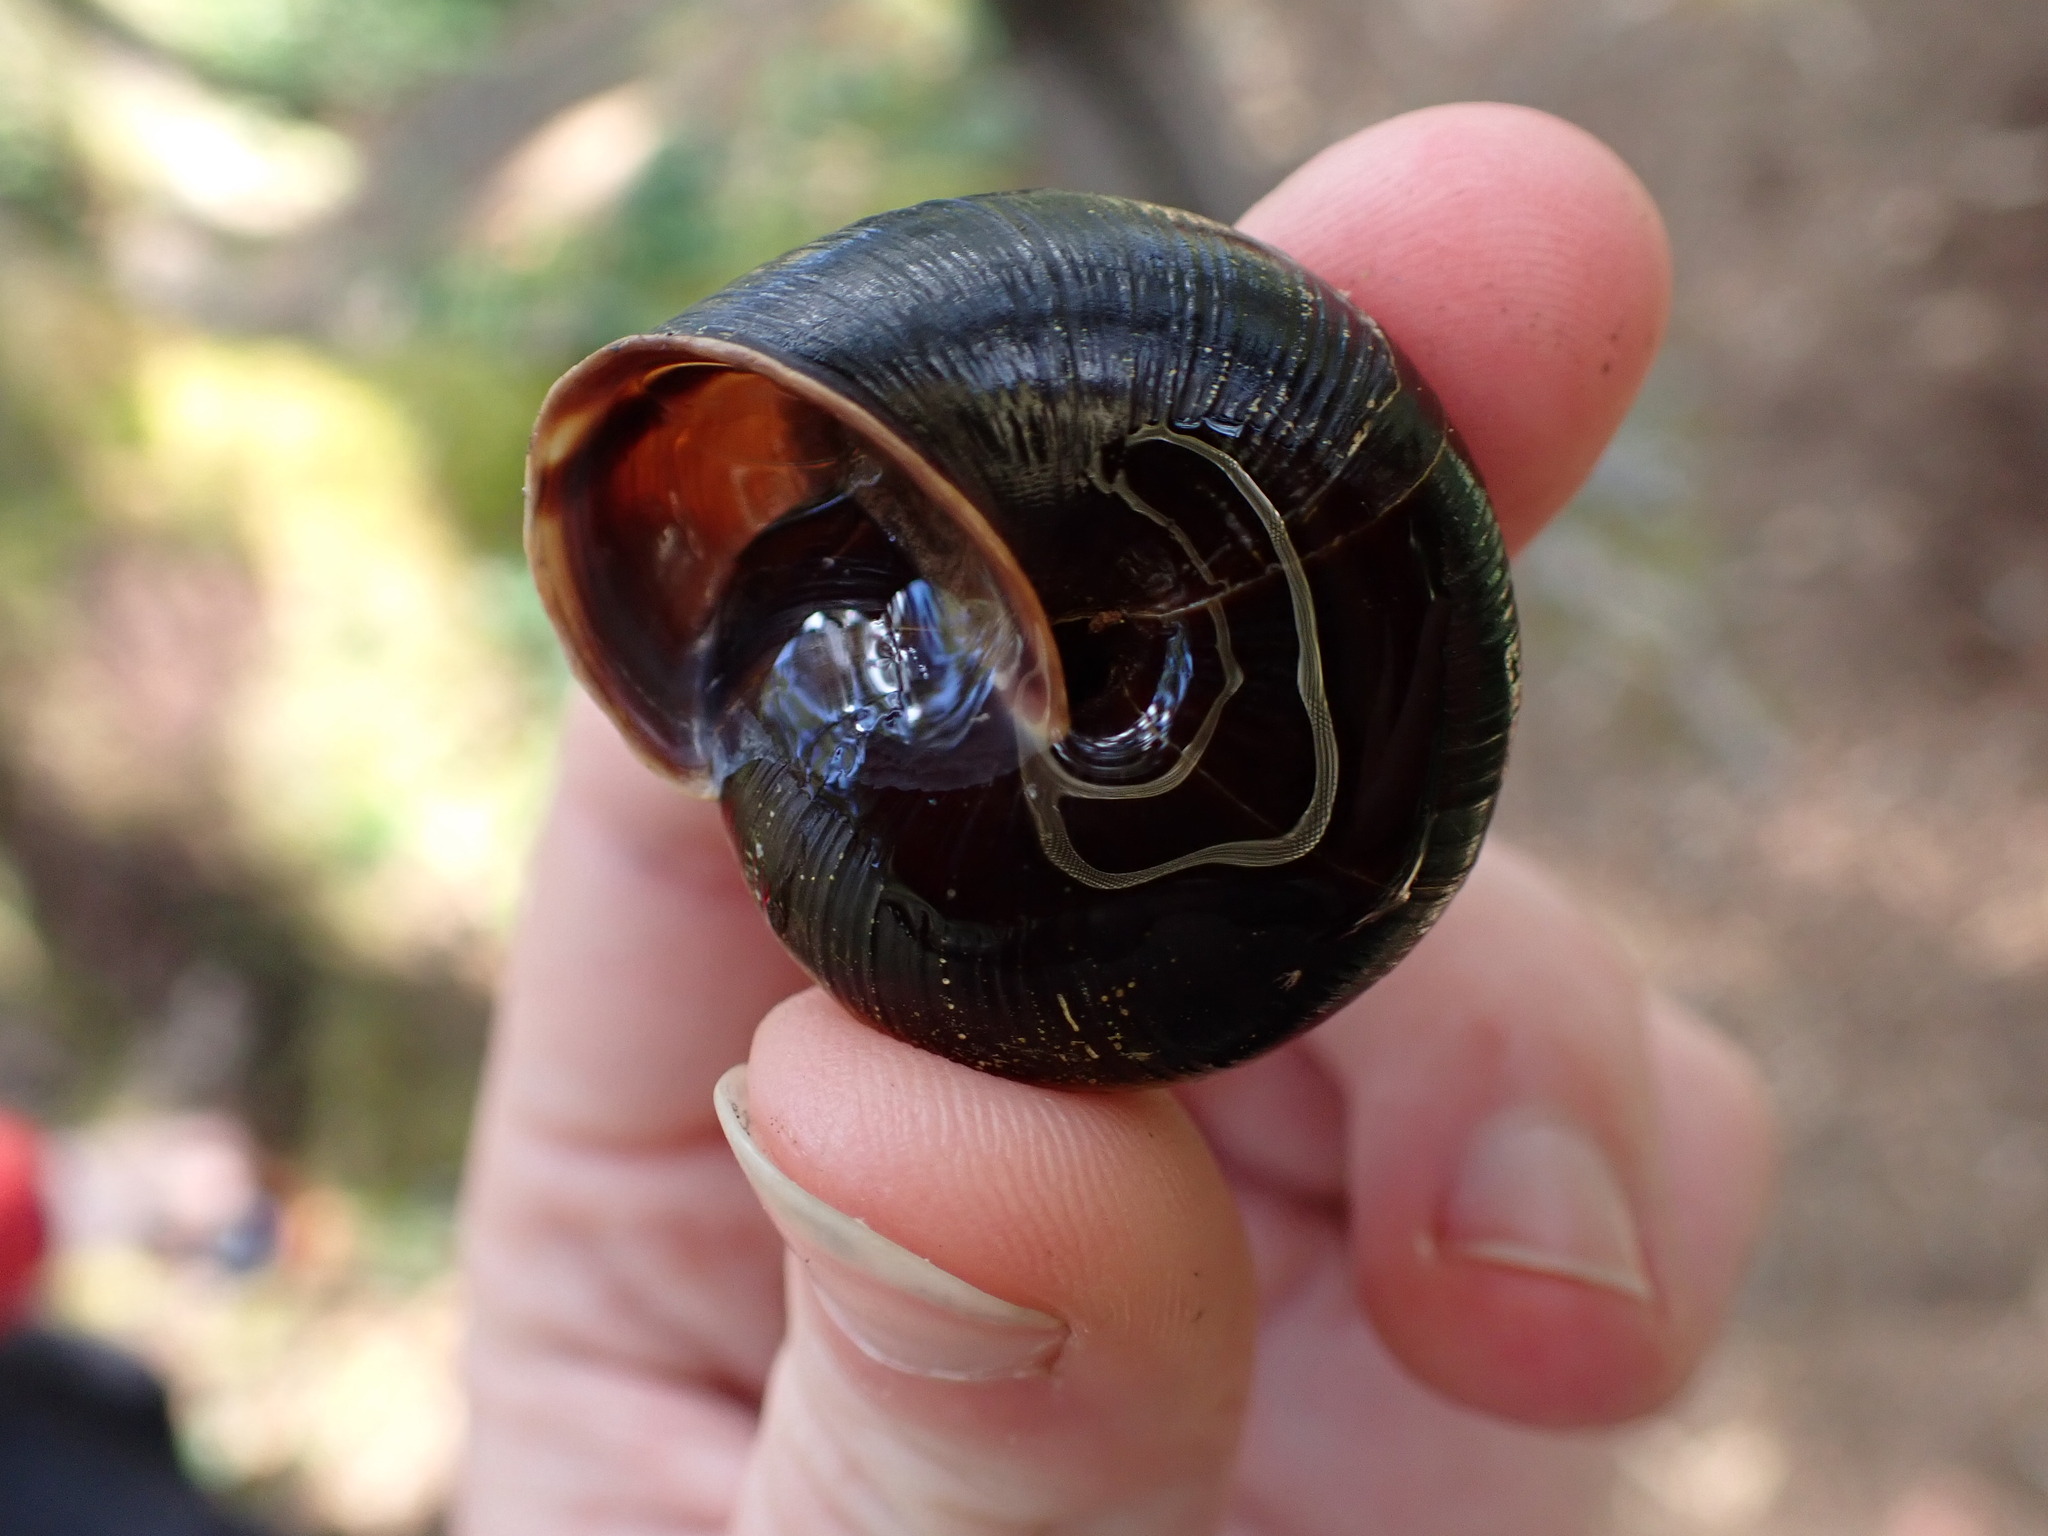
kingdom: Animalia
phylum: Mollusca
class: Gastropoda
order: Stylommatophora
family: Xanthonychidae
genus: Monadenia
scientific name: Monadenia fidelis
